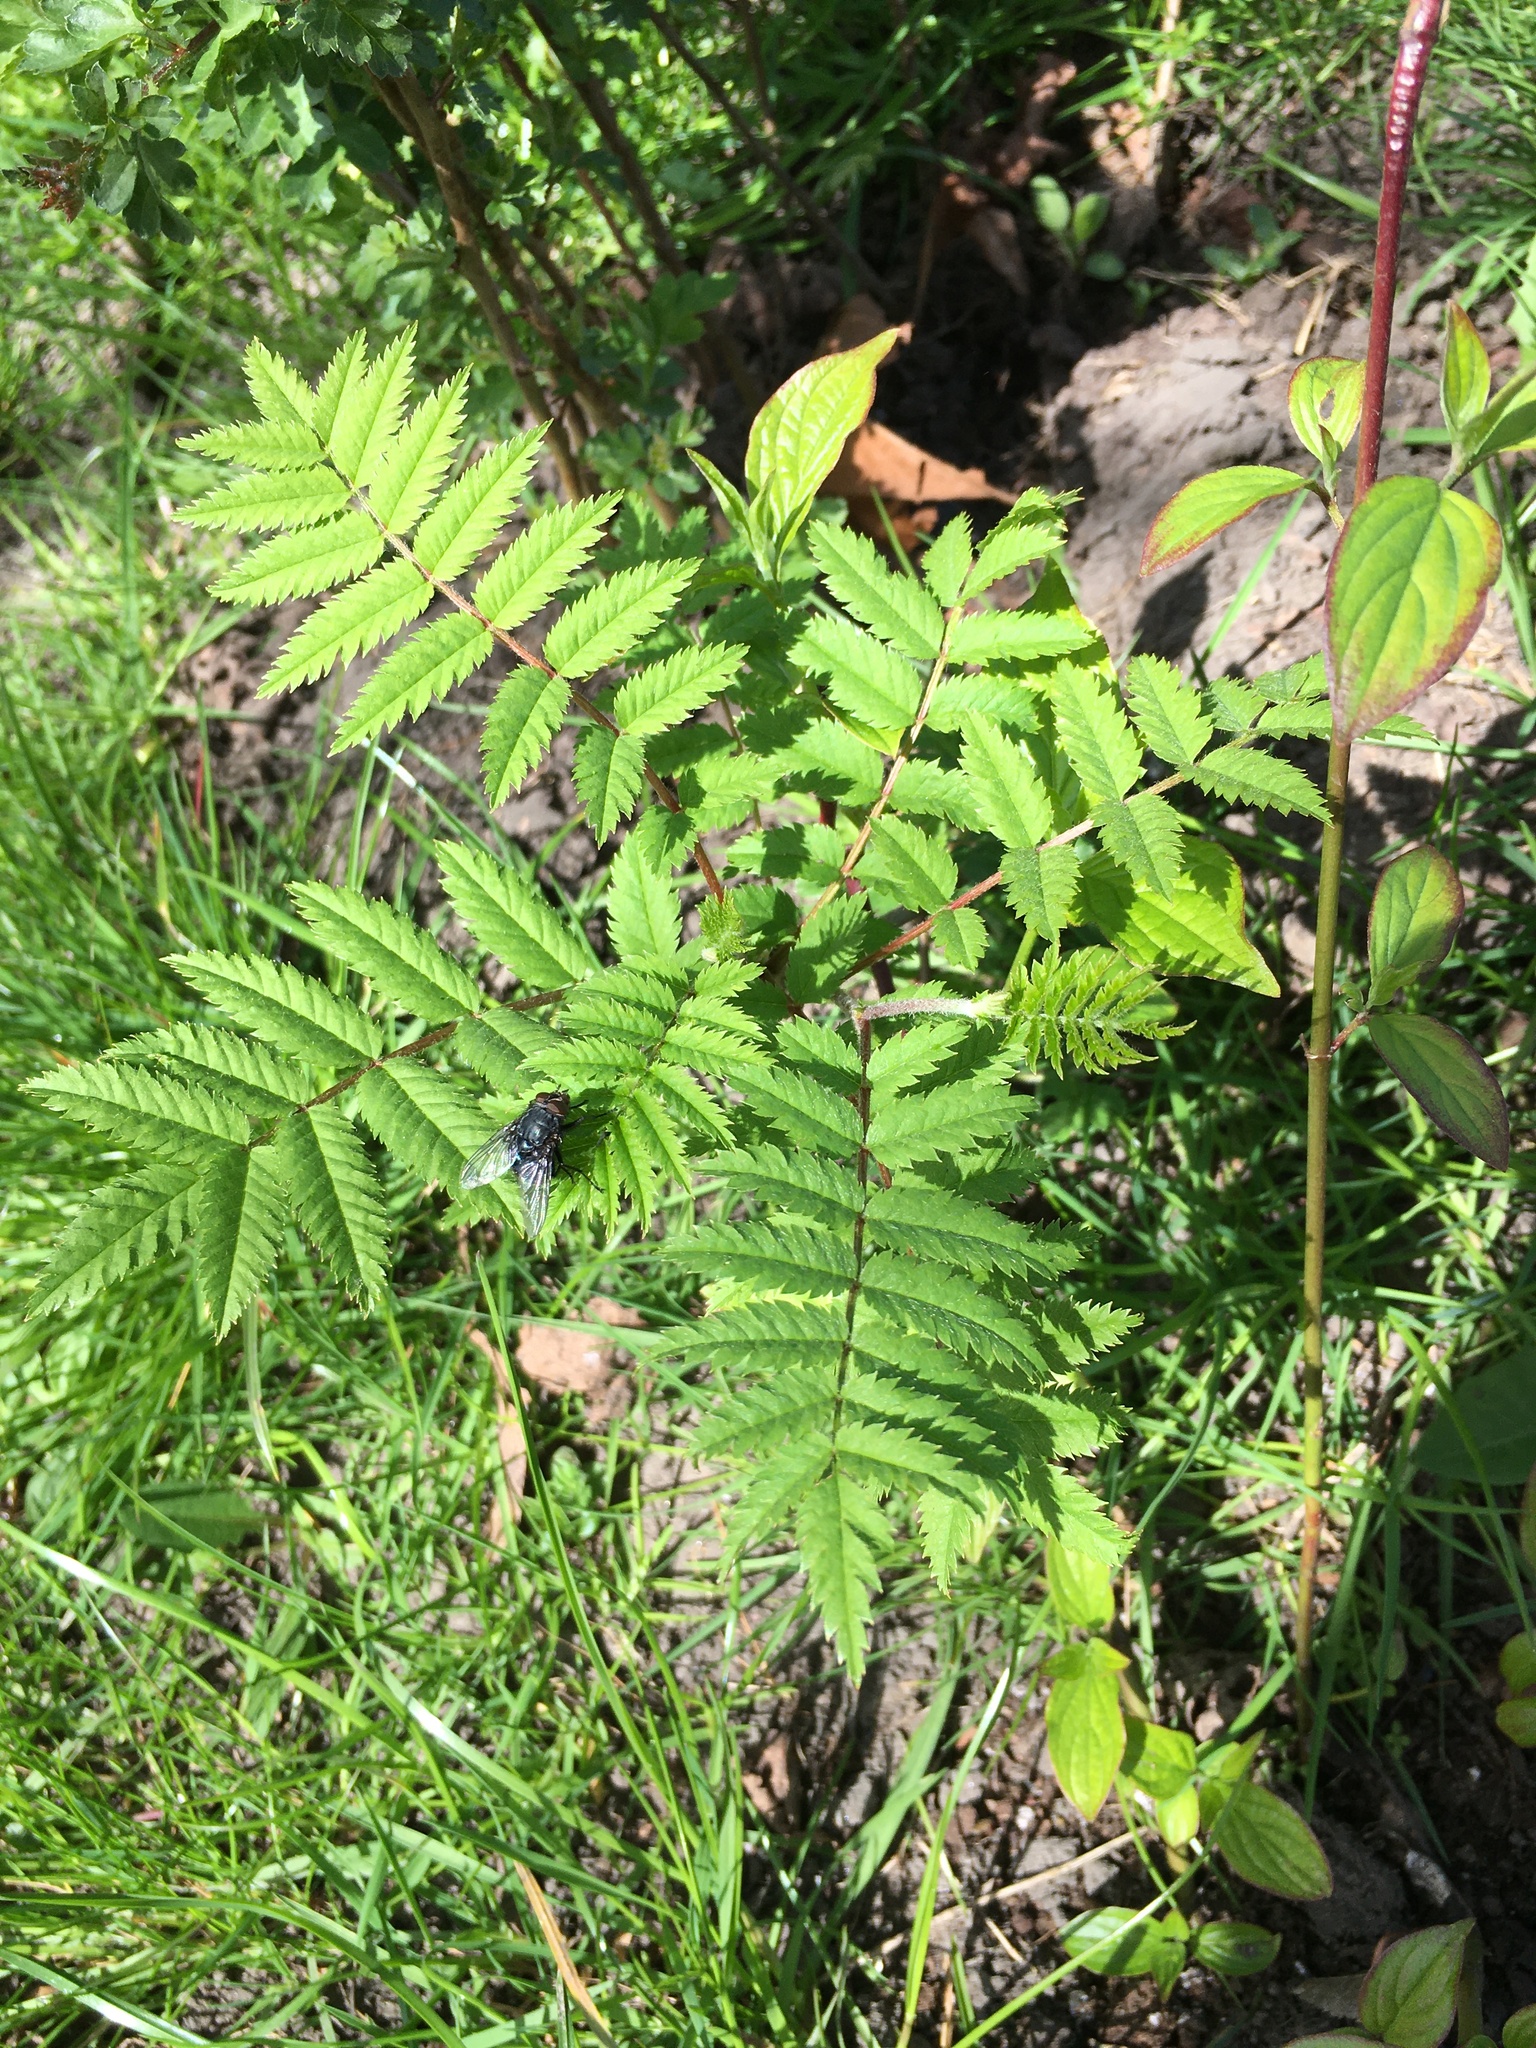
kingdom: Plantae
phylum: Tracheophyta
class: Magnoliopsida
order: Rosales
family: Rosaceae
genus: Sorbus
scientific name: Sorbus aucuparia
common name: Rowan
